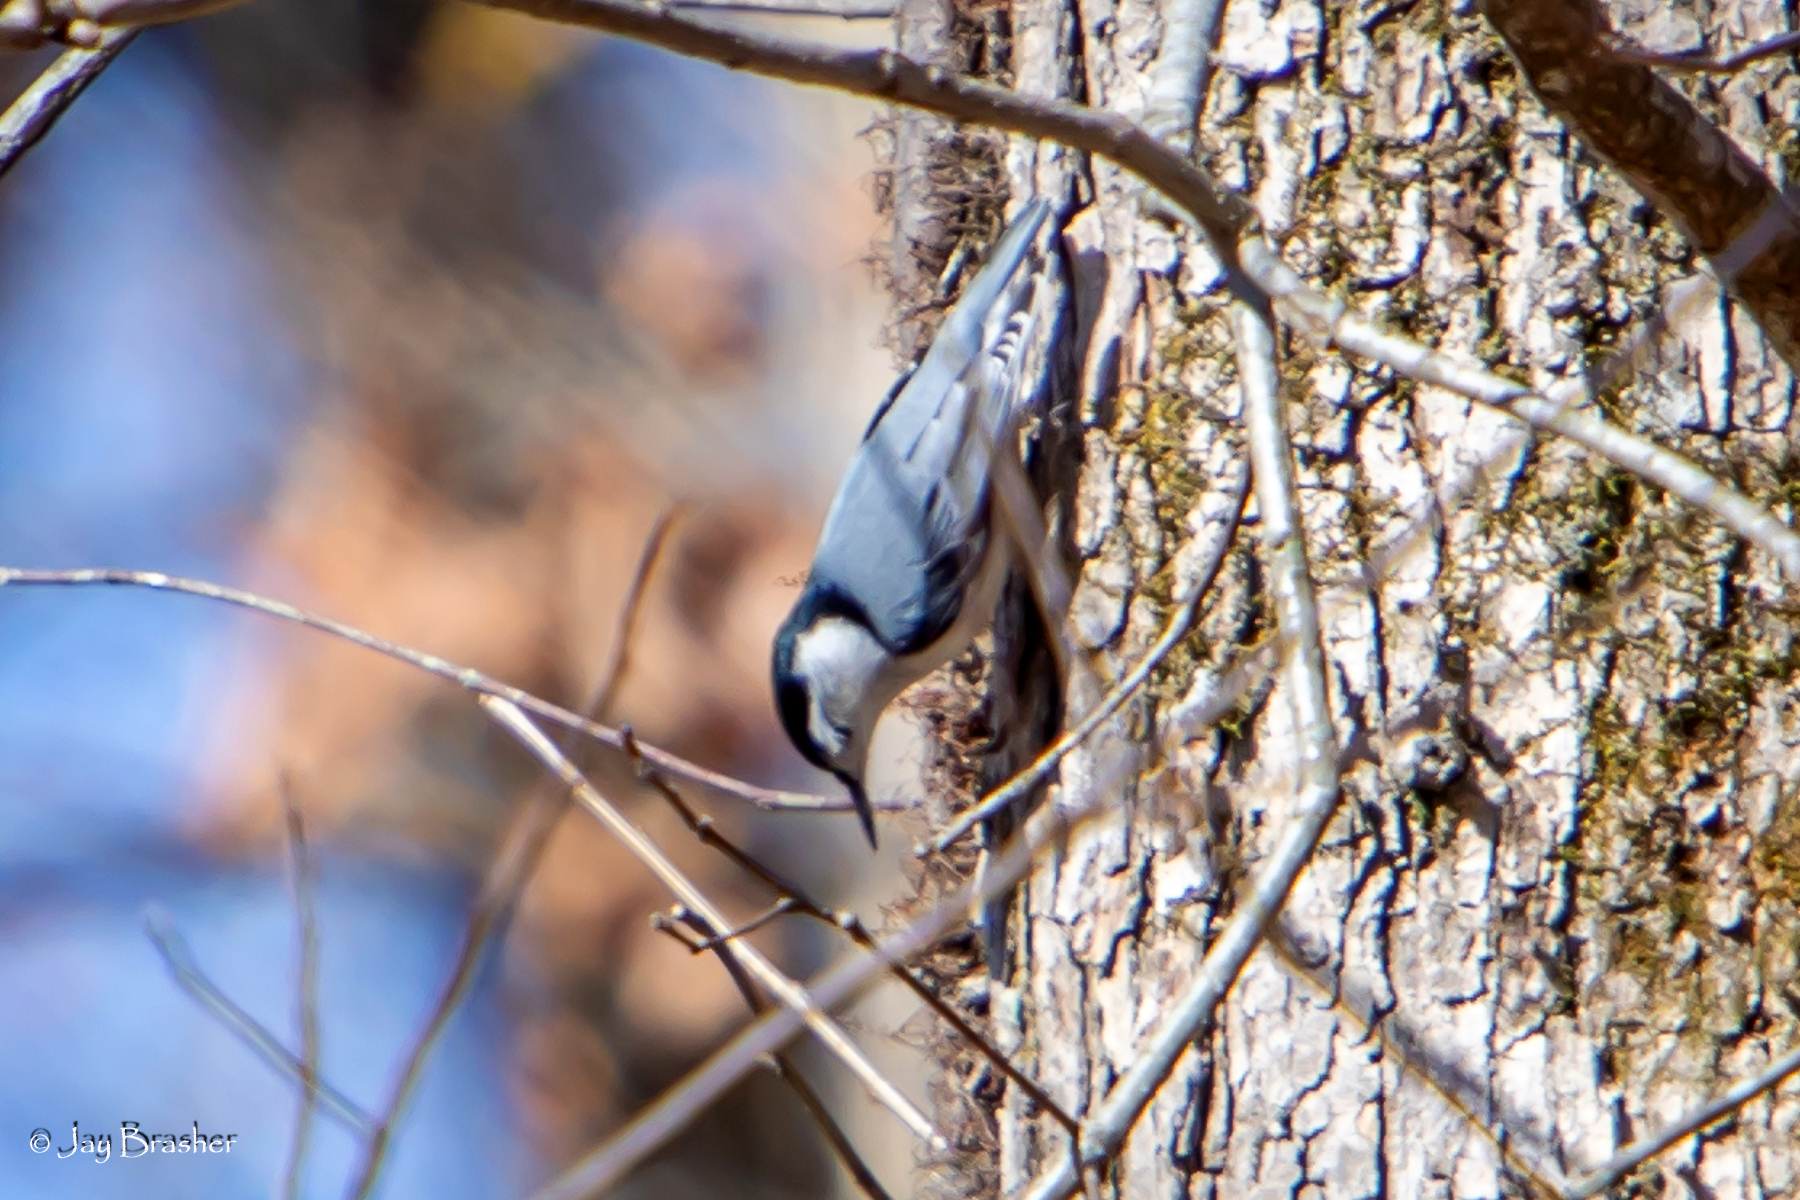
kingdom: Animalia
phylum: Chordata
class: Aves
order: Passeriformes
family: Sittidae
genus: Sitta
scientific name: Sitta carolinensis
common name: White-breasted nuthatch
